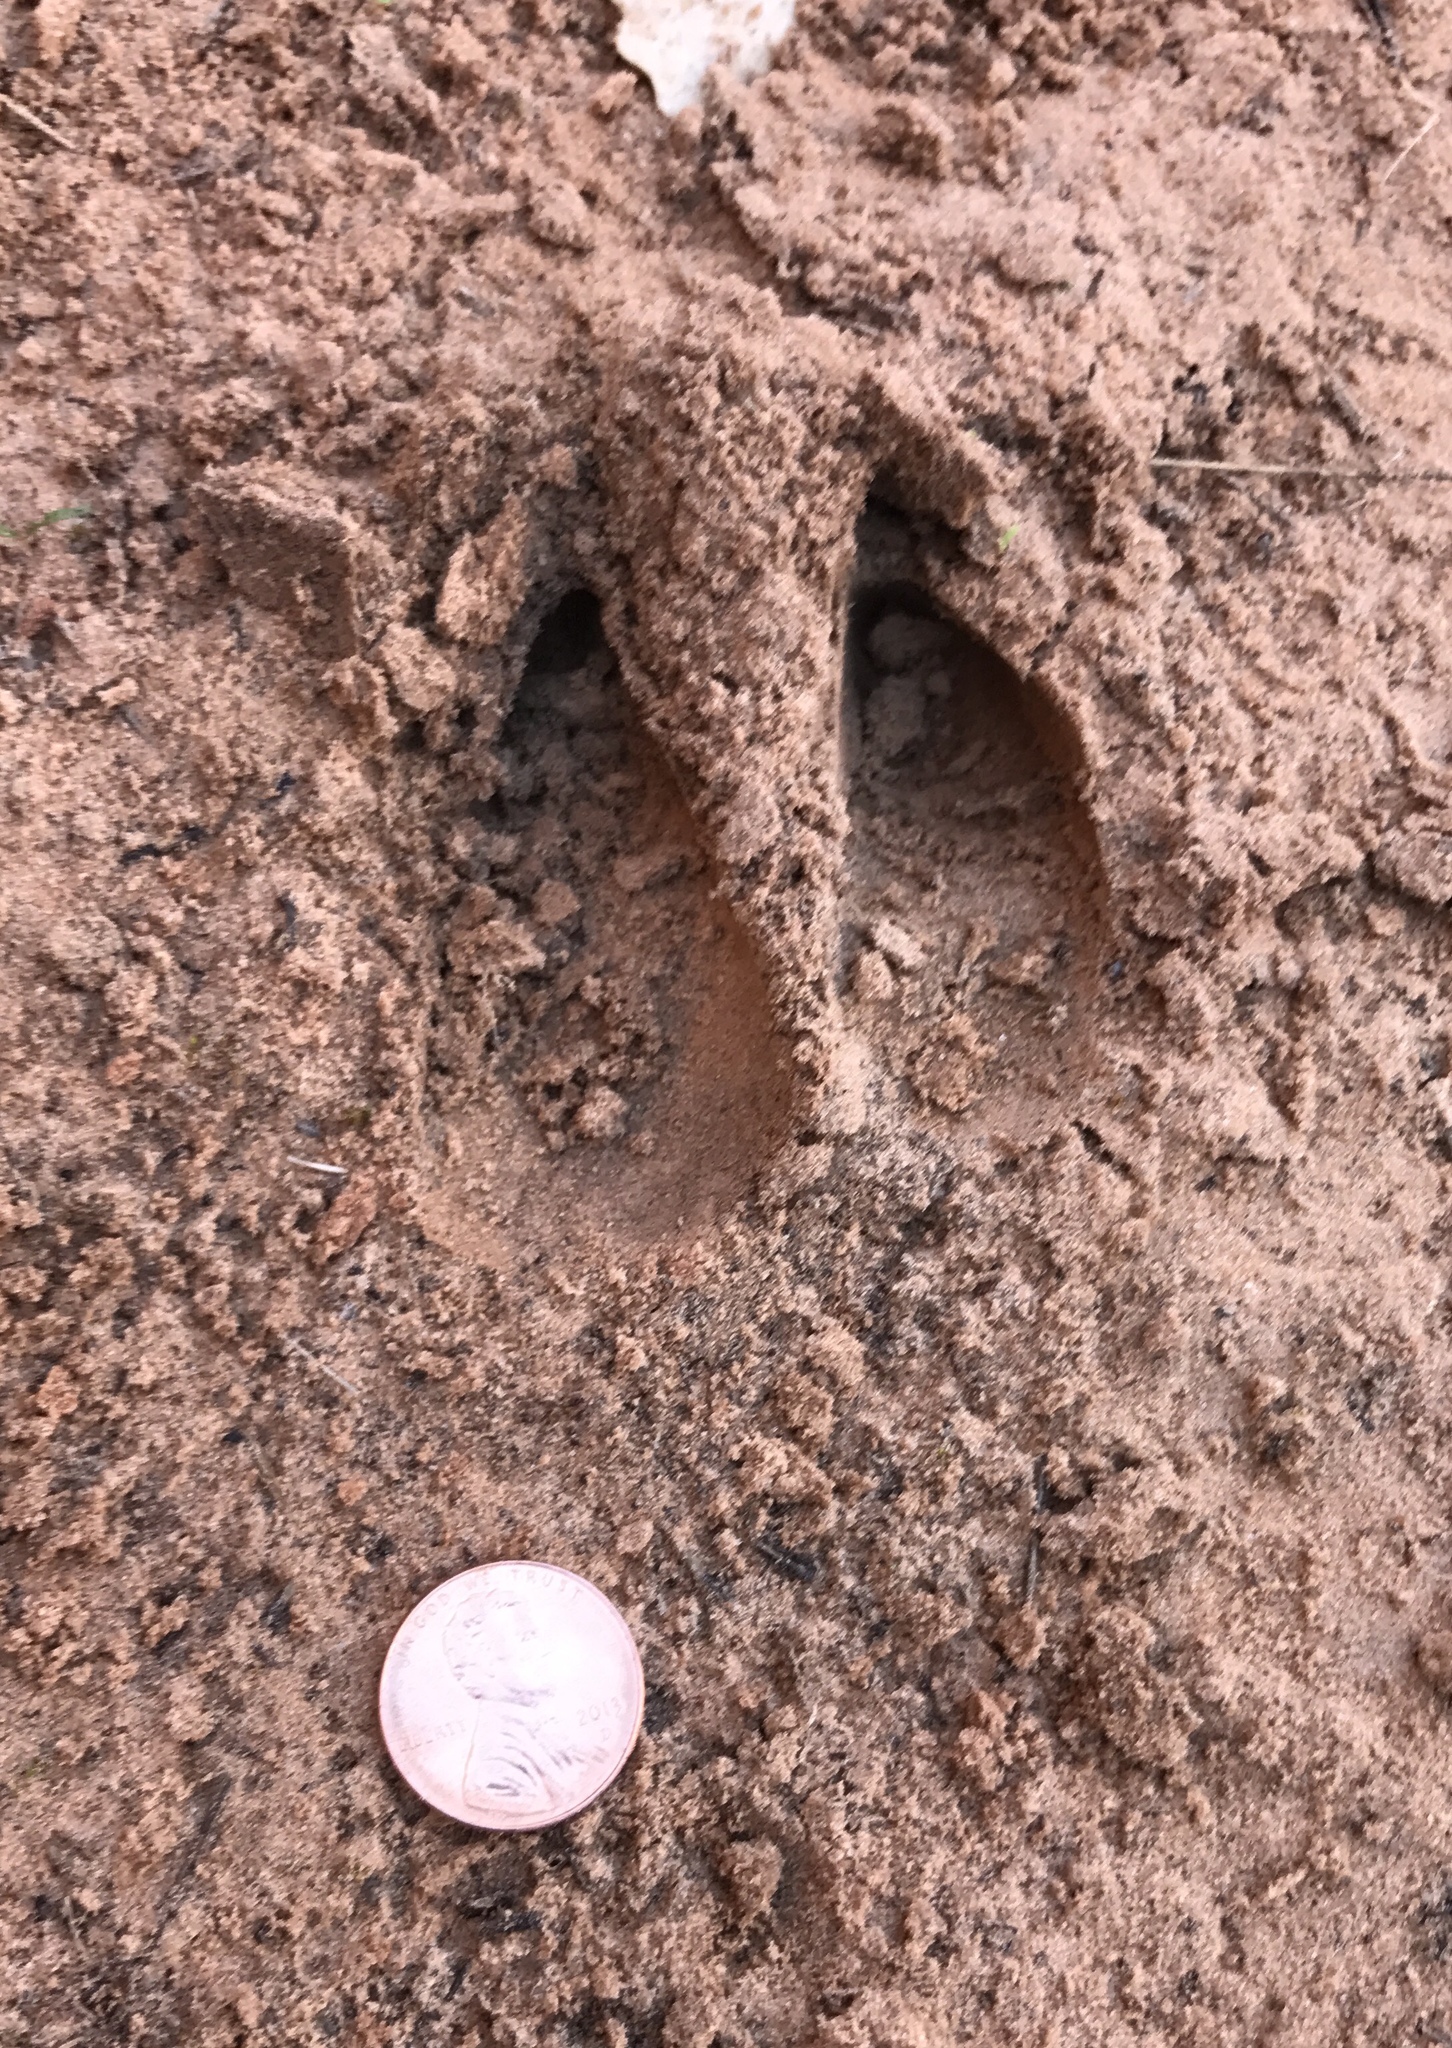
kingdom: Animalia
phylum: Chordata
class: Mammalia
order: Artiodactyla
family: Cervidae
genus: Odocoileus
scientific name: Odocoileus hemionus
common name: Mule deer
